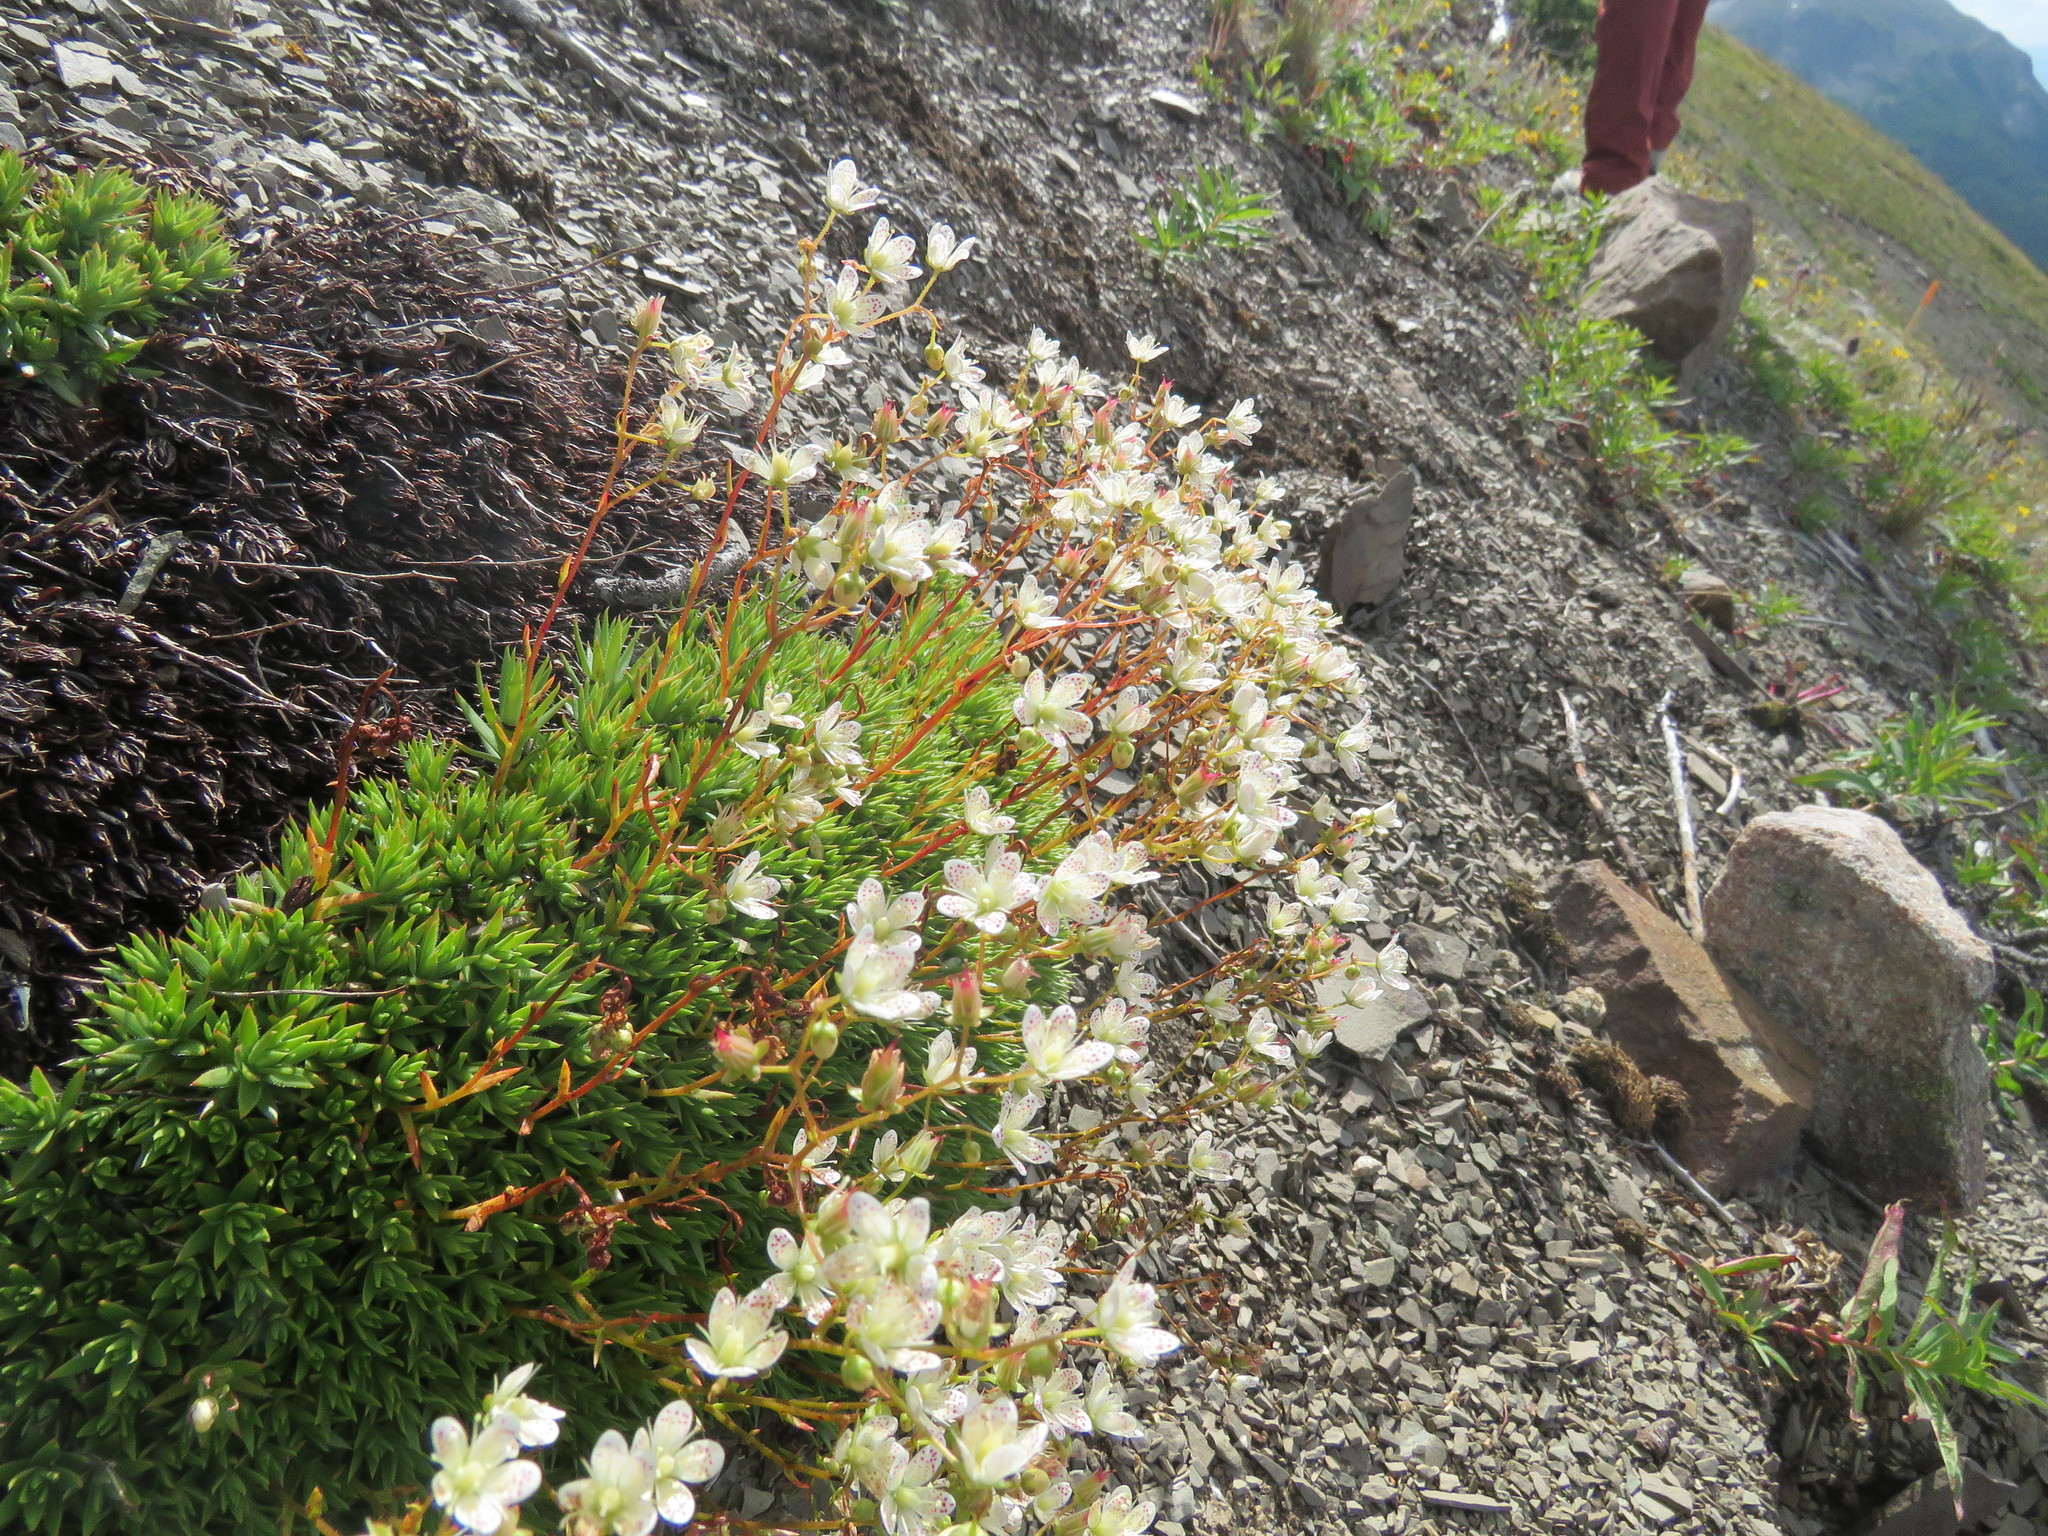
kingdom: Plantae
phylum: Tracheophyta
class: Magnoliopsida
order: Saxifragales
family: Saxifragaceae
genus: Saxifraga
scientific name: Saxifraga bronchialis
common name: Matted saxifrage
